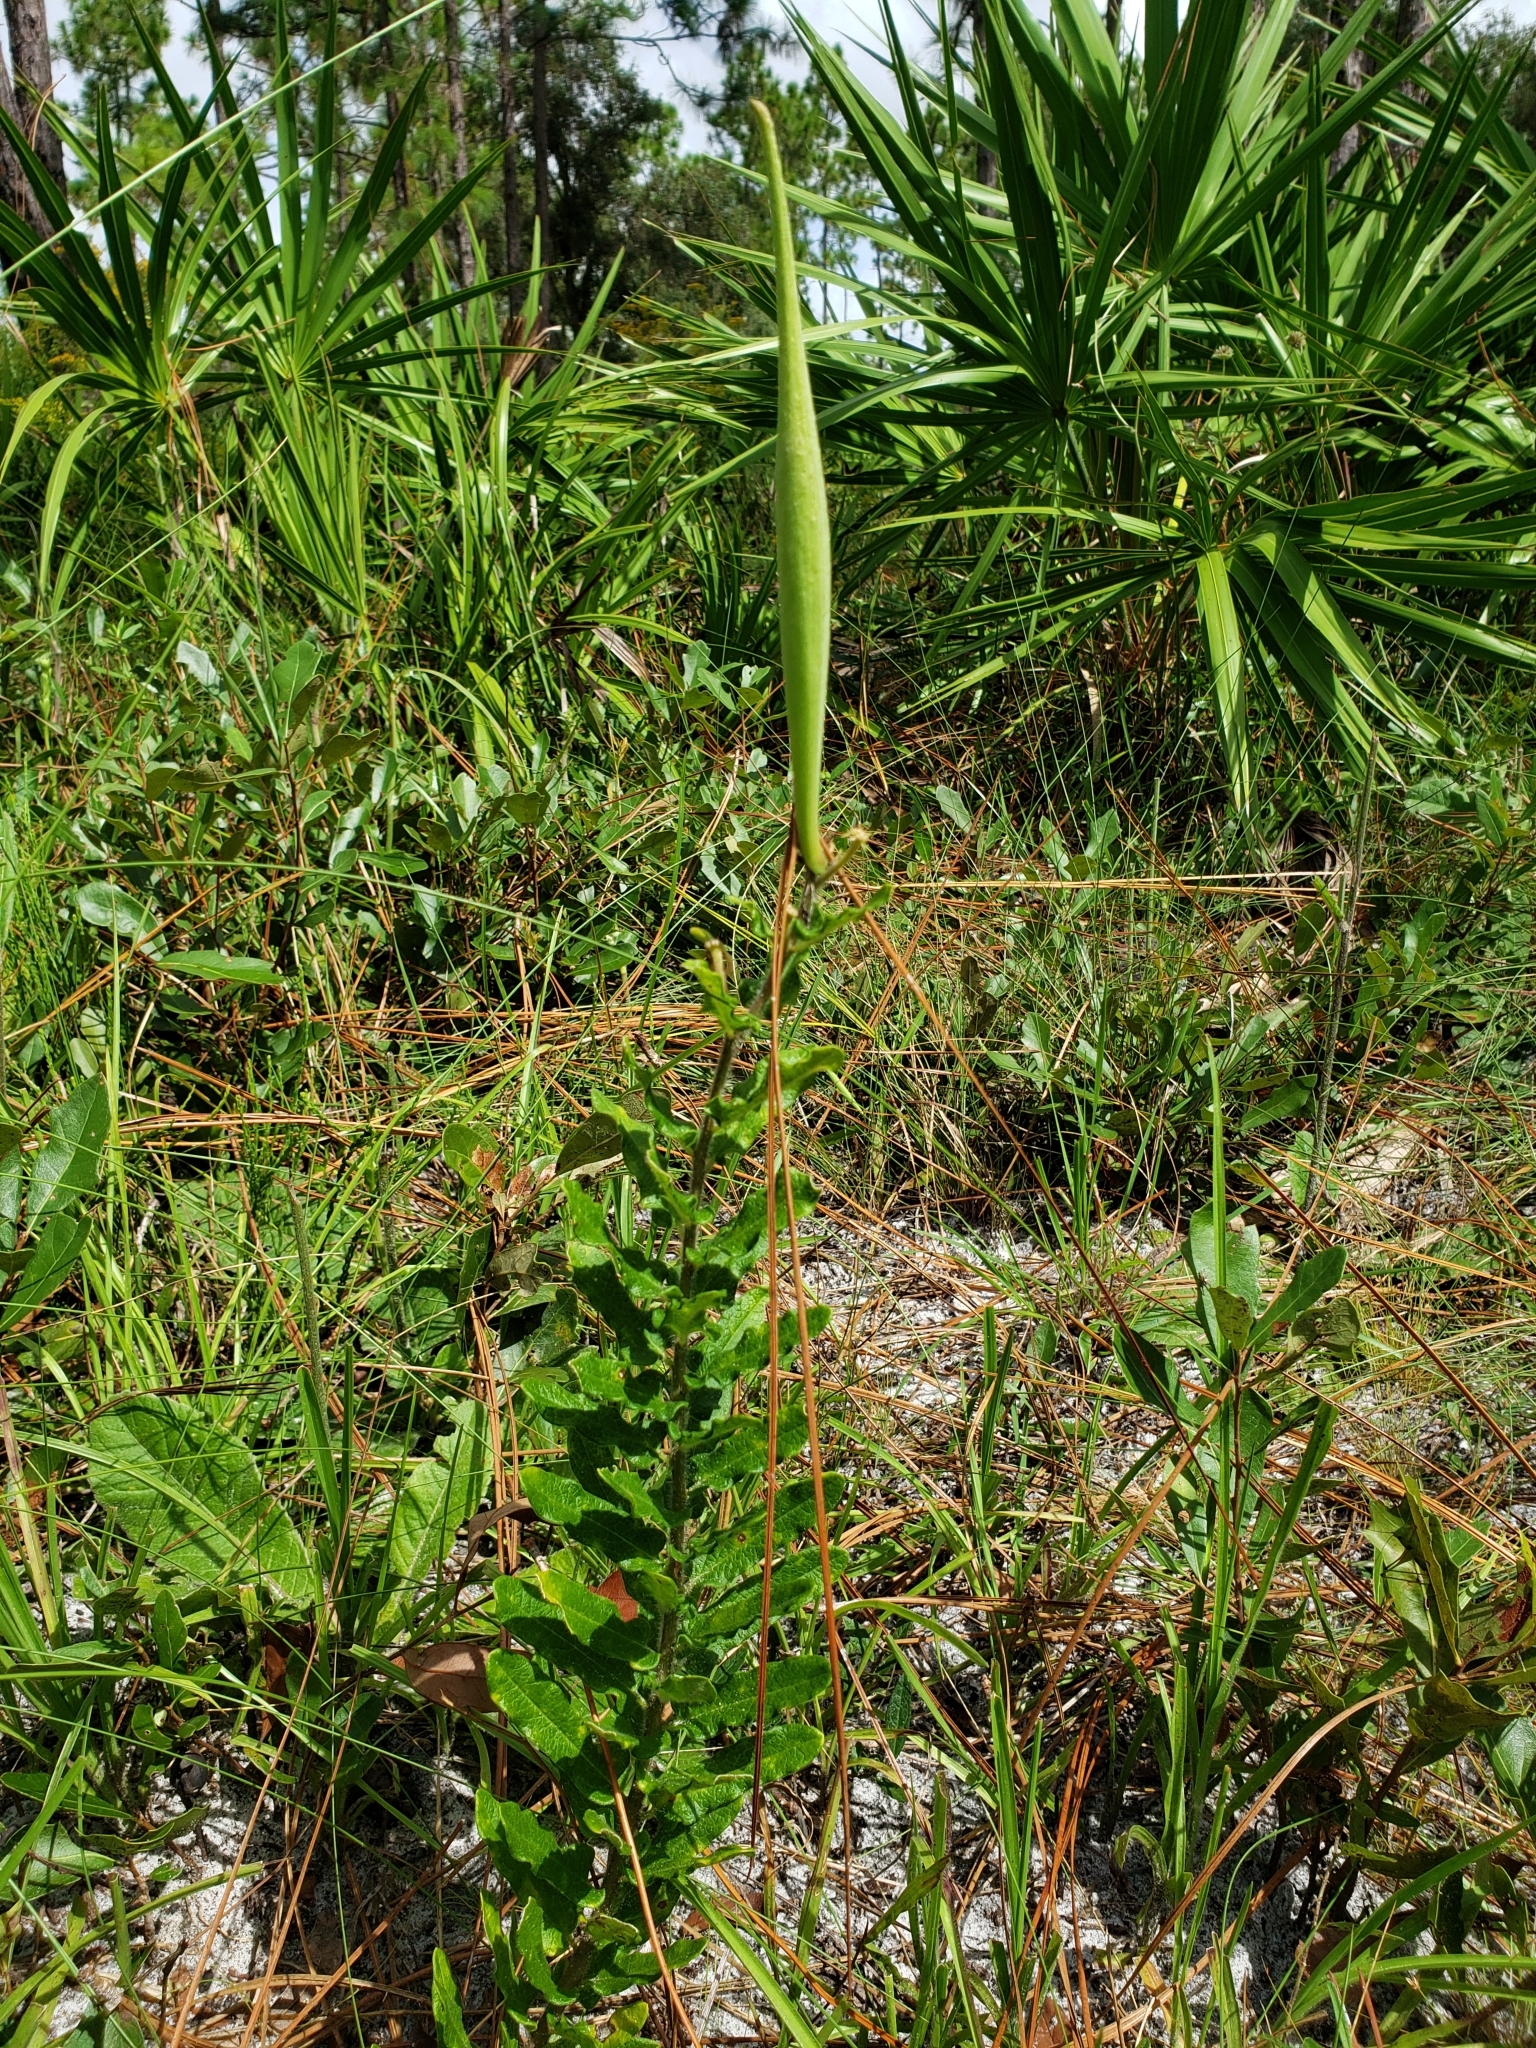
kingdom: Plantae
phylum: Tracheophyta
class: Magnoliopsida
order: Gentianales
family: Apocynaceae
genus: Asclepias
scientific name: Asclepias tuberosa
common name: Butterfly milkweed
